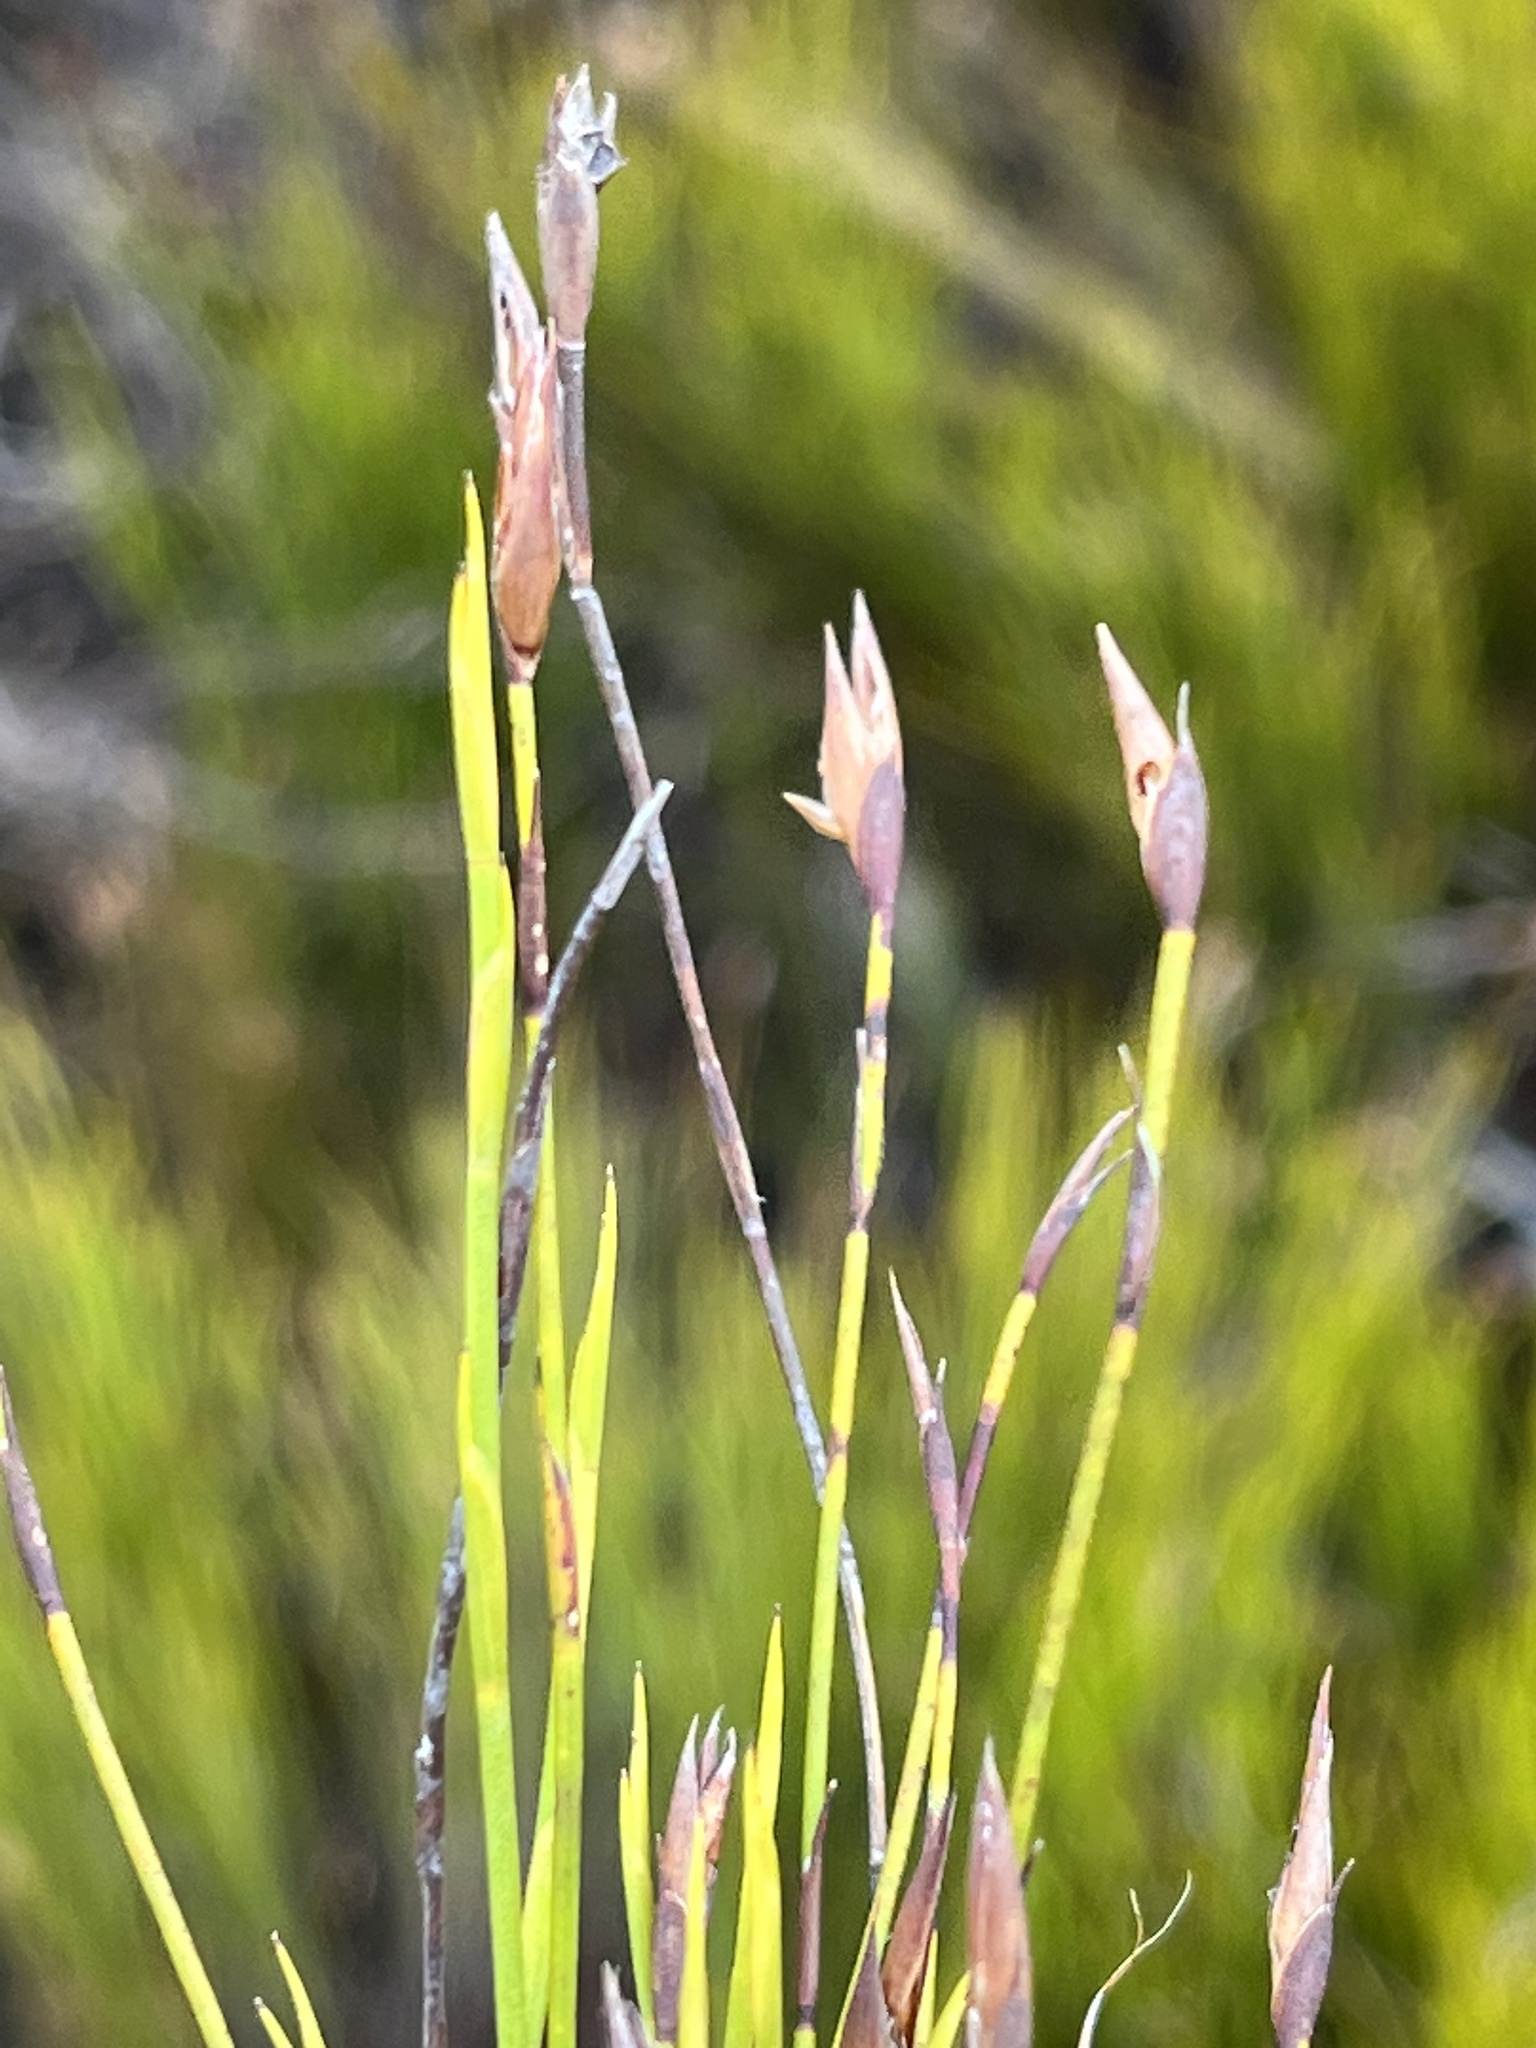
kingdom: Plantae
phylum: Tracheophyta
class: Liliopsida
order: Poales
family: Restionaceae
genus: Platycaulos
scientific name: Platycaulos anceps
